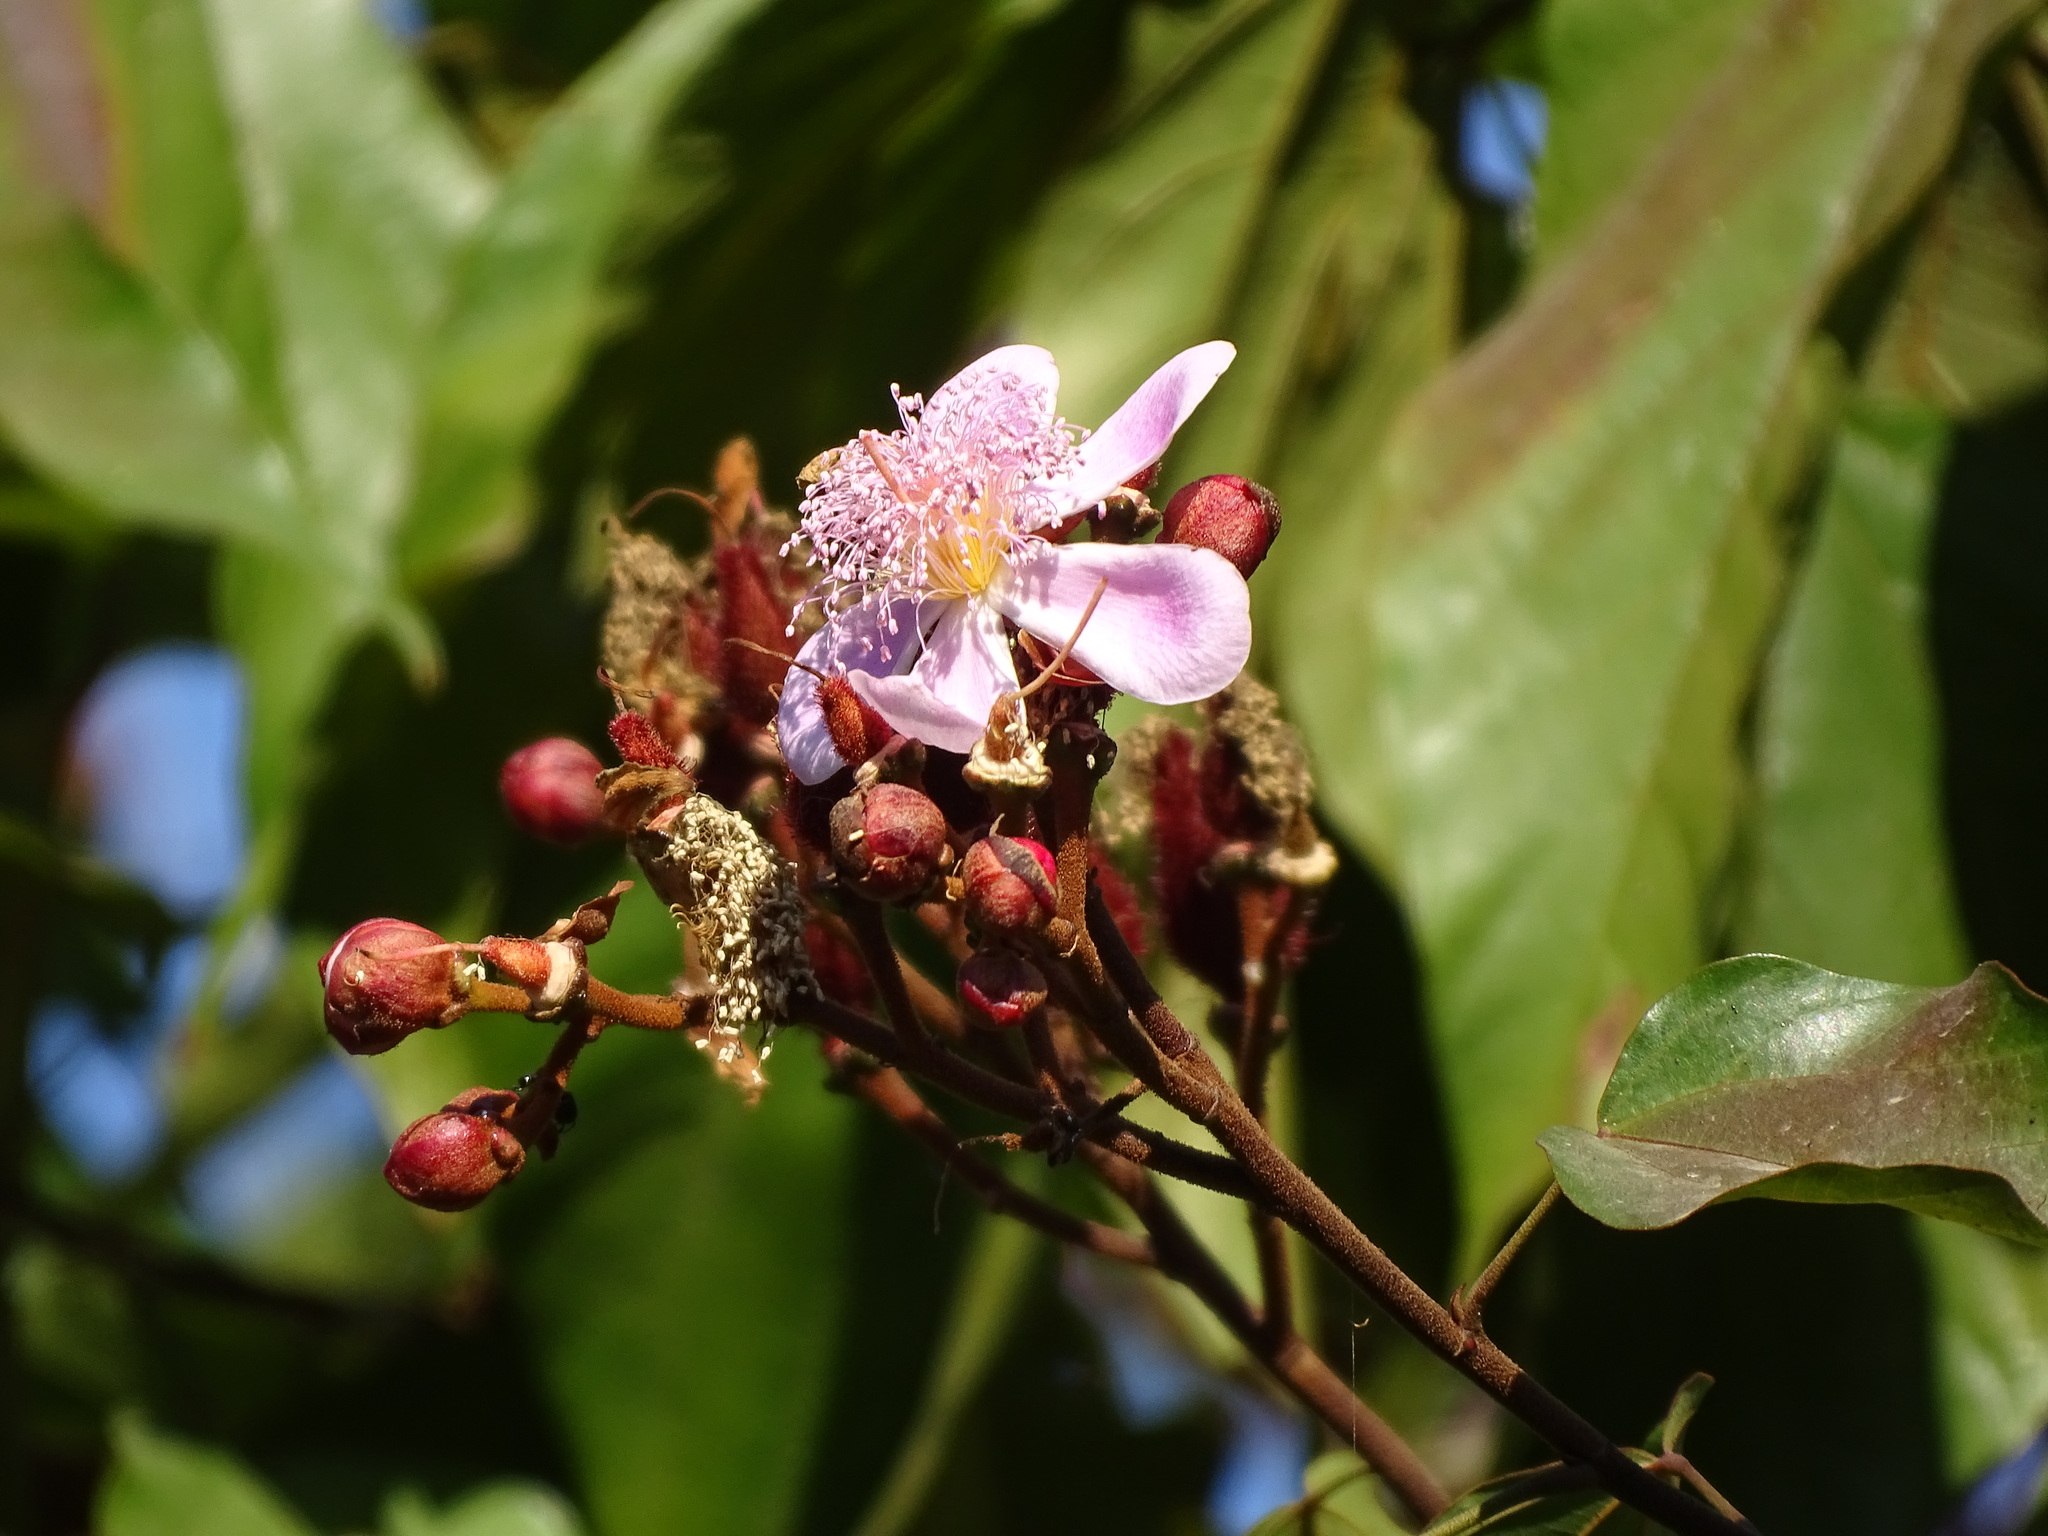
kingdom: Plantae
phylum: Tracheophyta
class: Magnoliopsida
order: Malvales
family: Bixaceae
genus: Bixa
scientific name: Bixa orellana
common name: Lipsticktree
